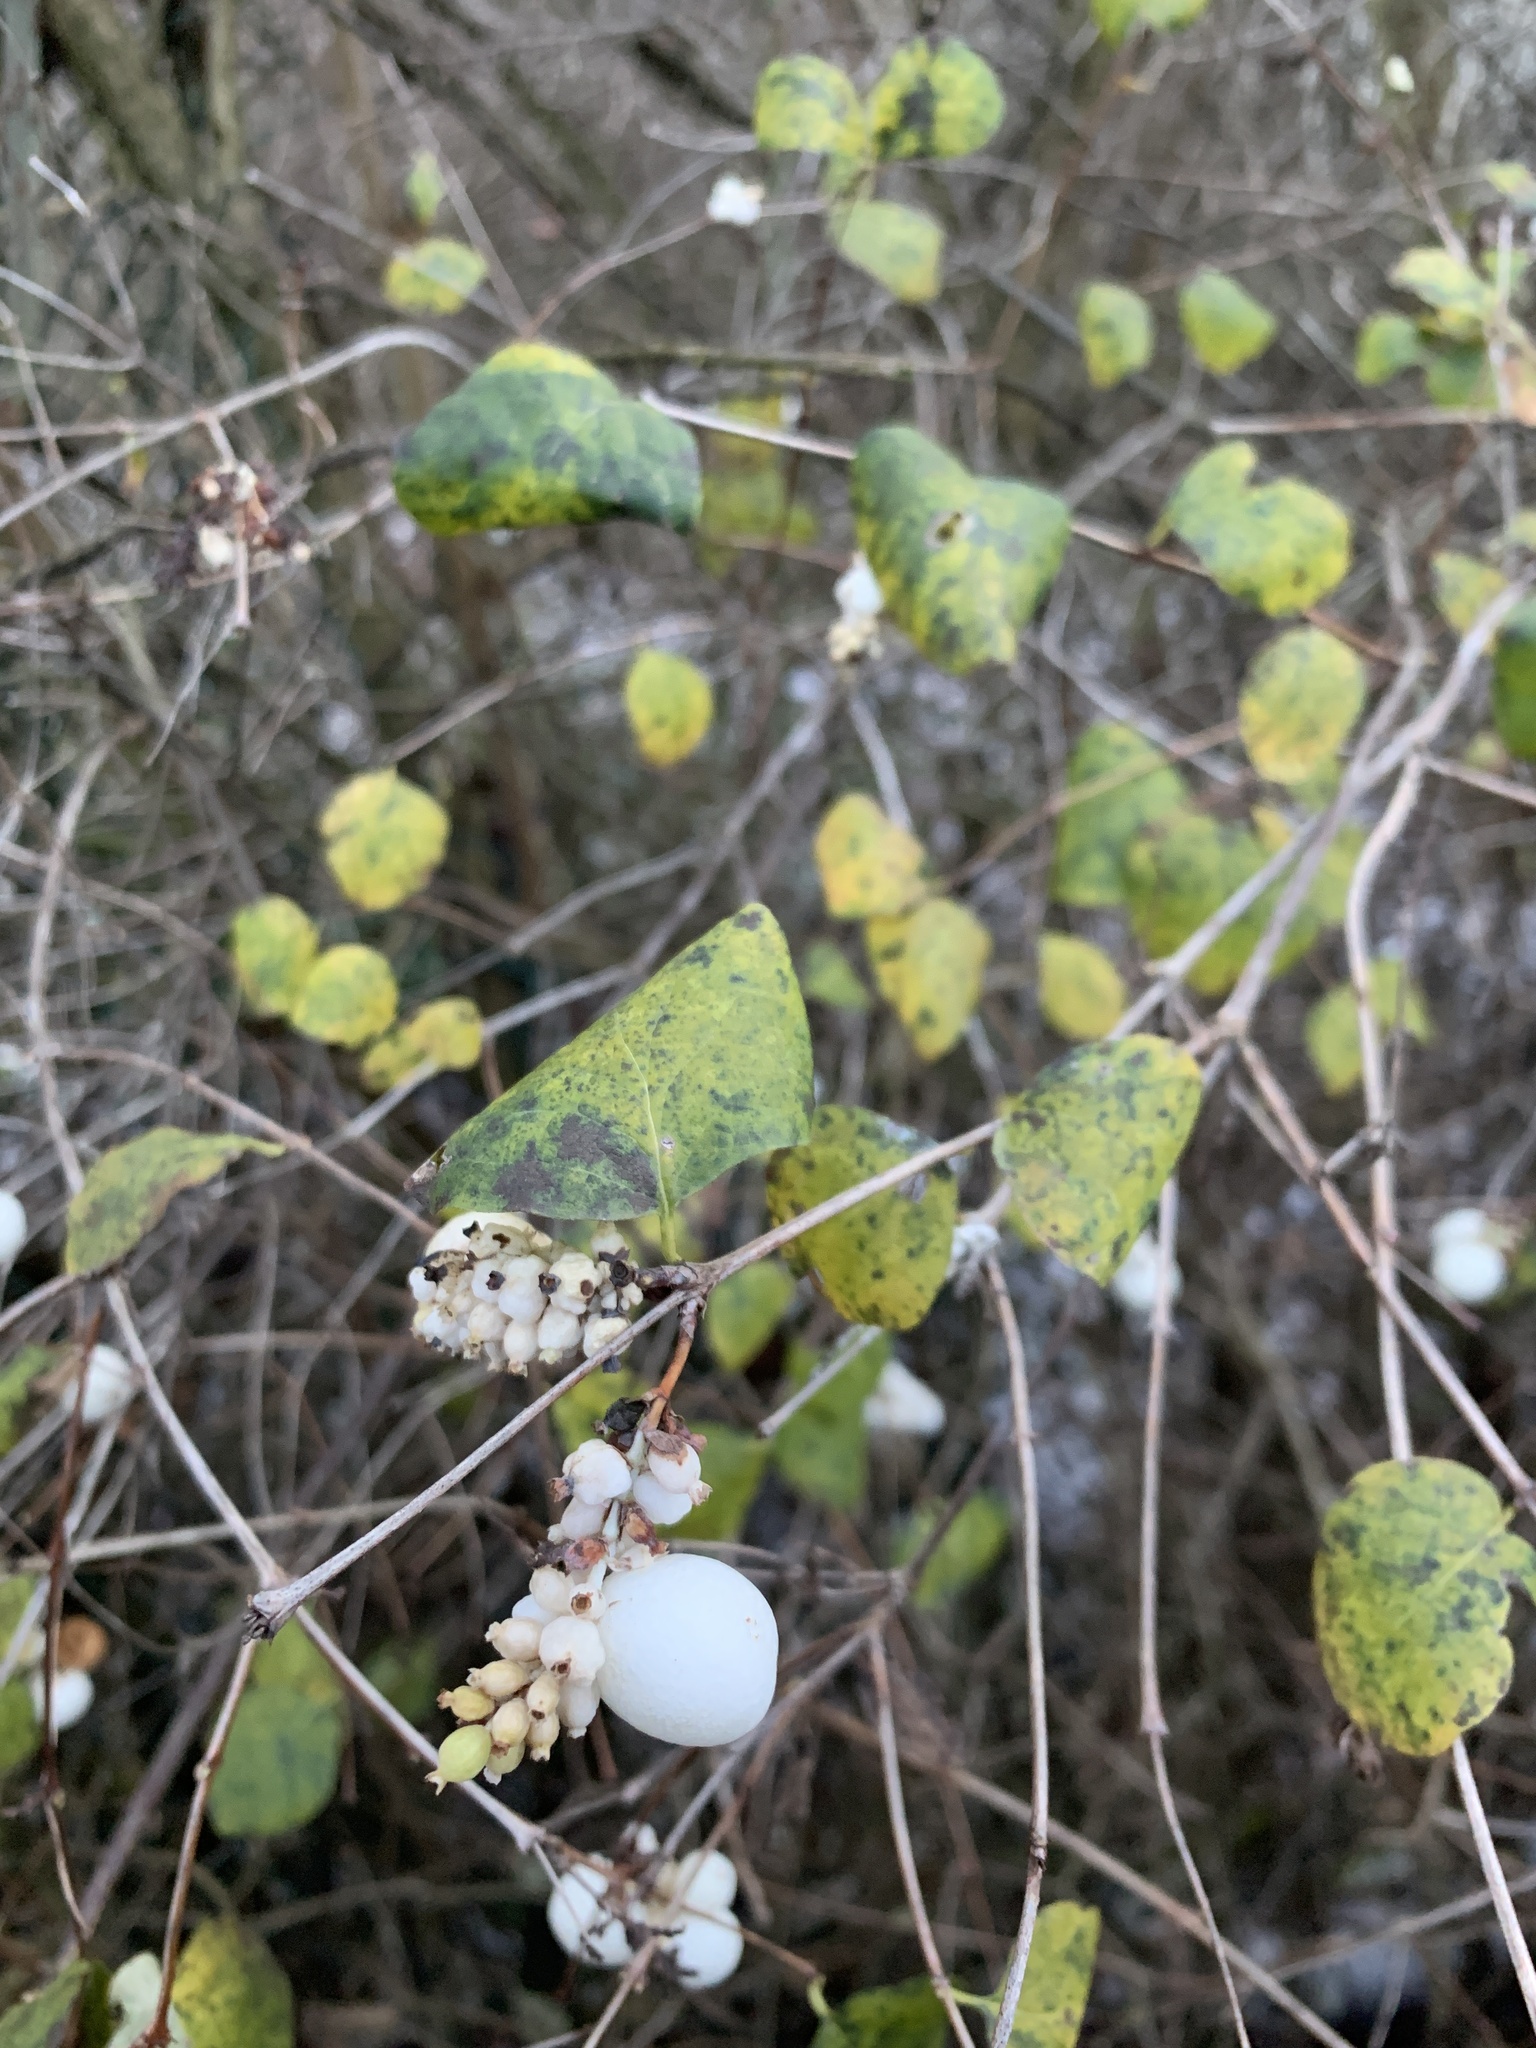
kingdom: Plantae
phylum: Tracheophyta
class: Magnoliopsida
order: Dipsacales
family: Caprifoliaceae
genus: Symphoricarpos
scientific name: Symphoricarpos albus
